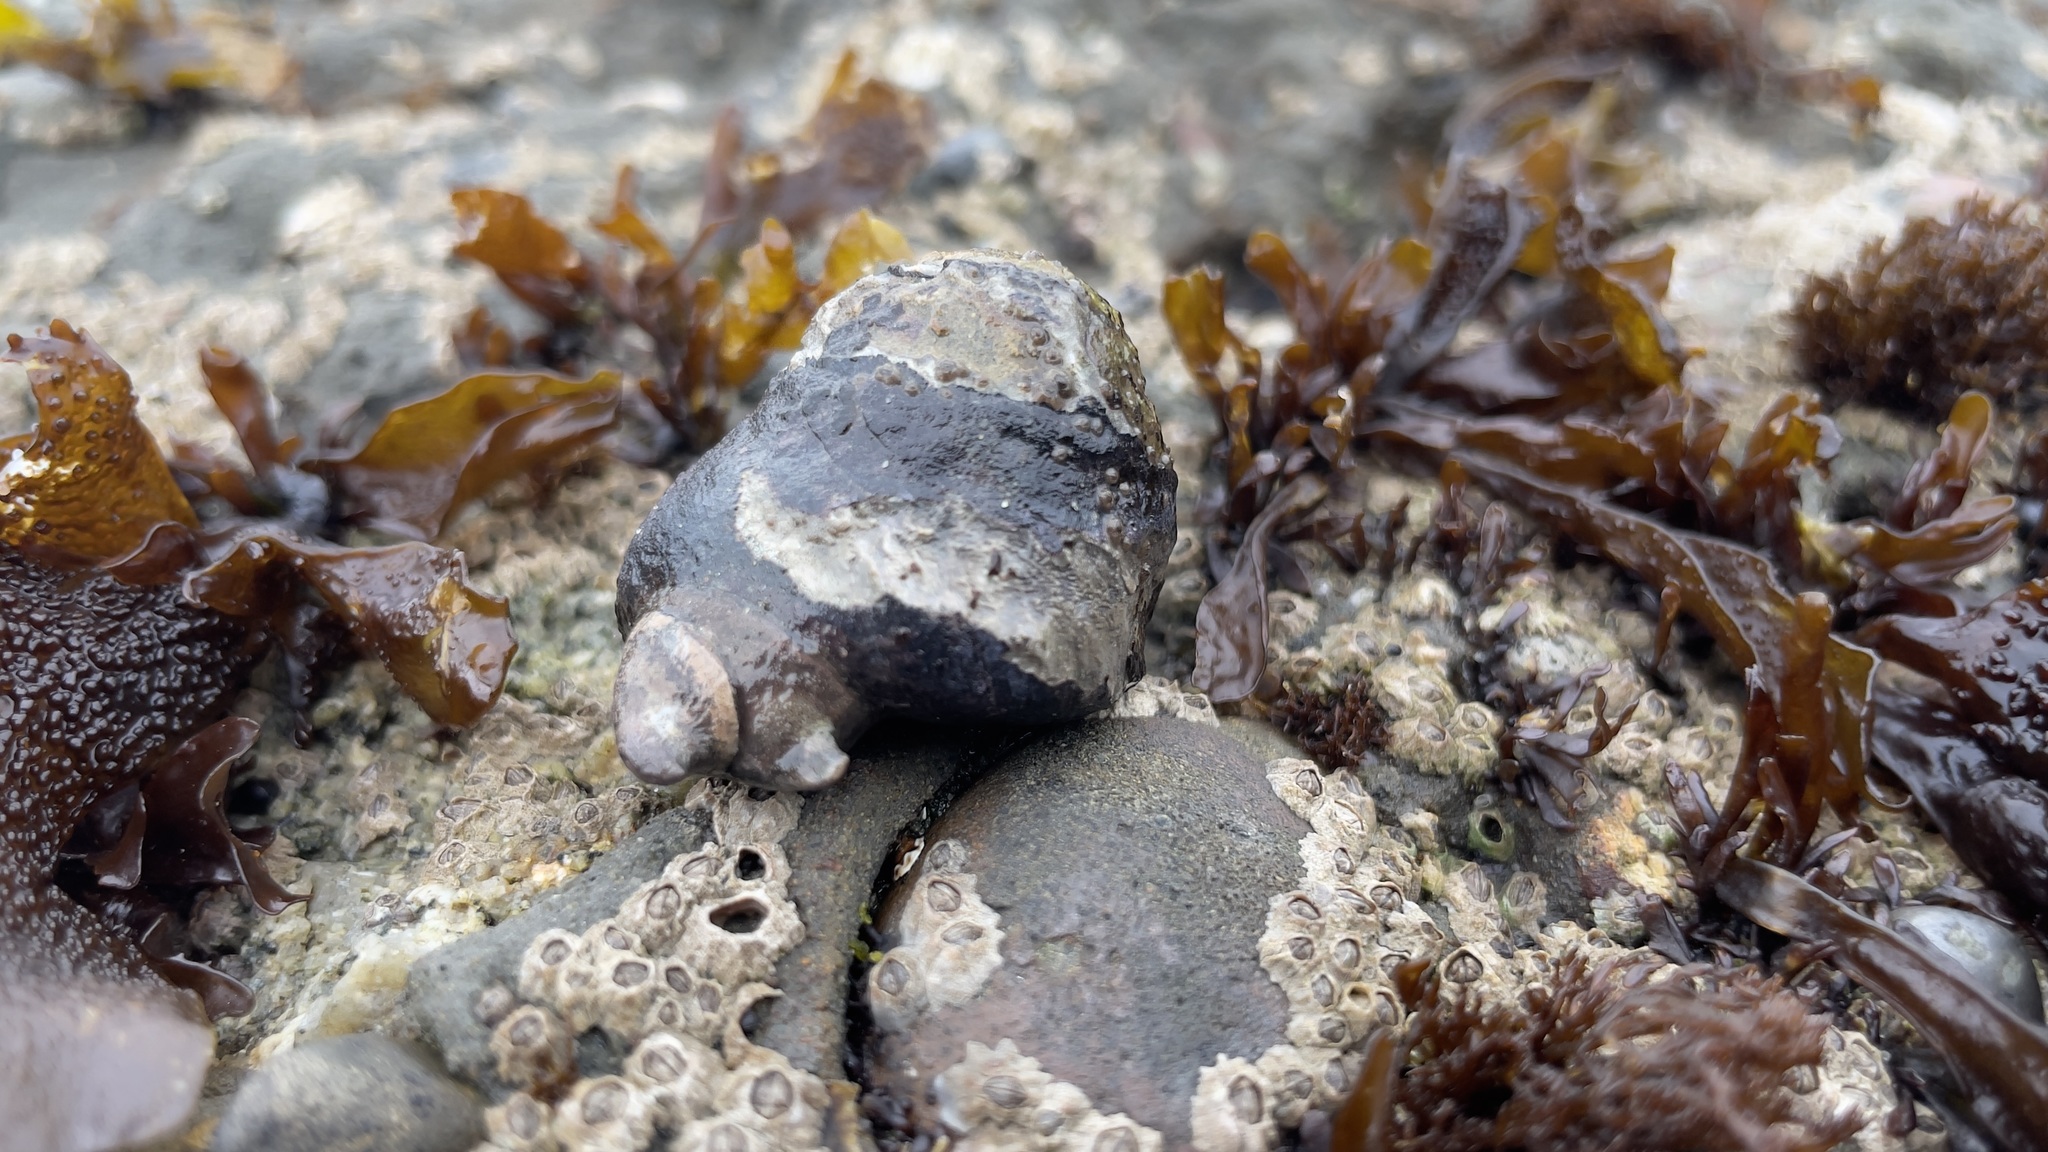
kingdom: Animalia
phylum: Mollusca
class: Gastropoda
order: Trochida
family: Tegulidae
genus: Tegula
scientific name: Tegula funebralis
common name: Black tegula
